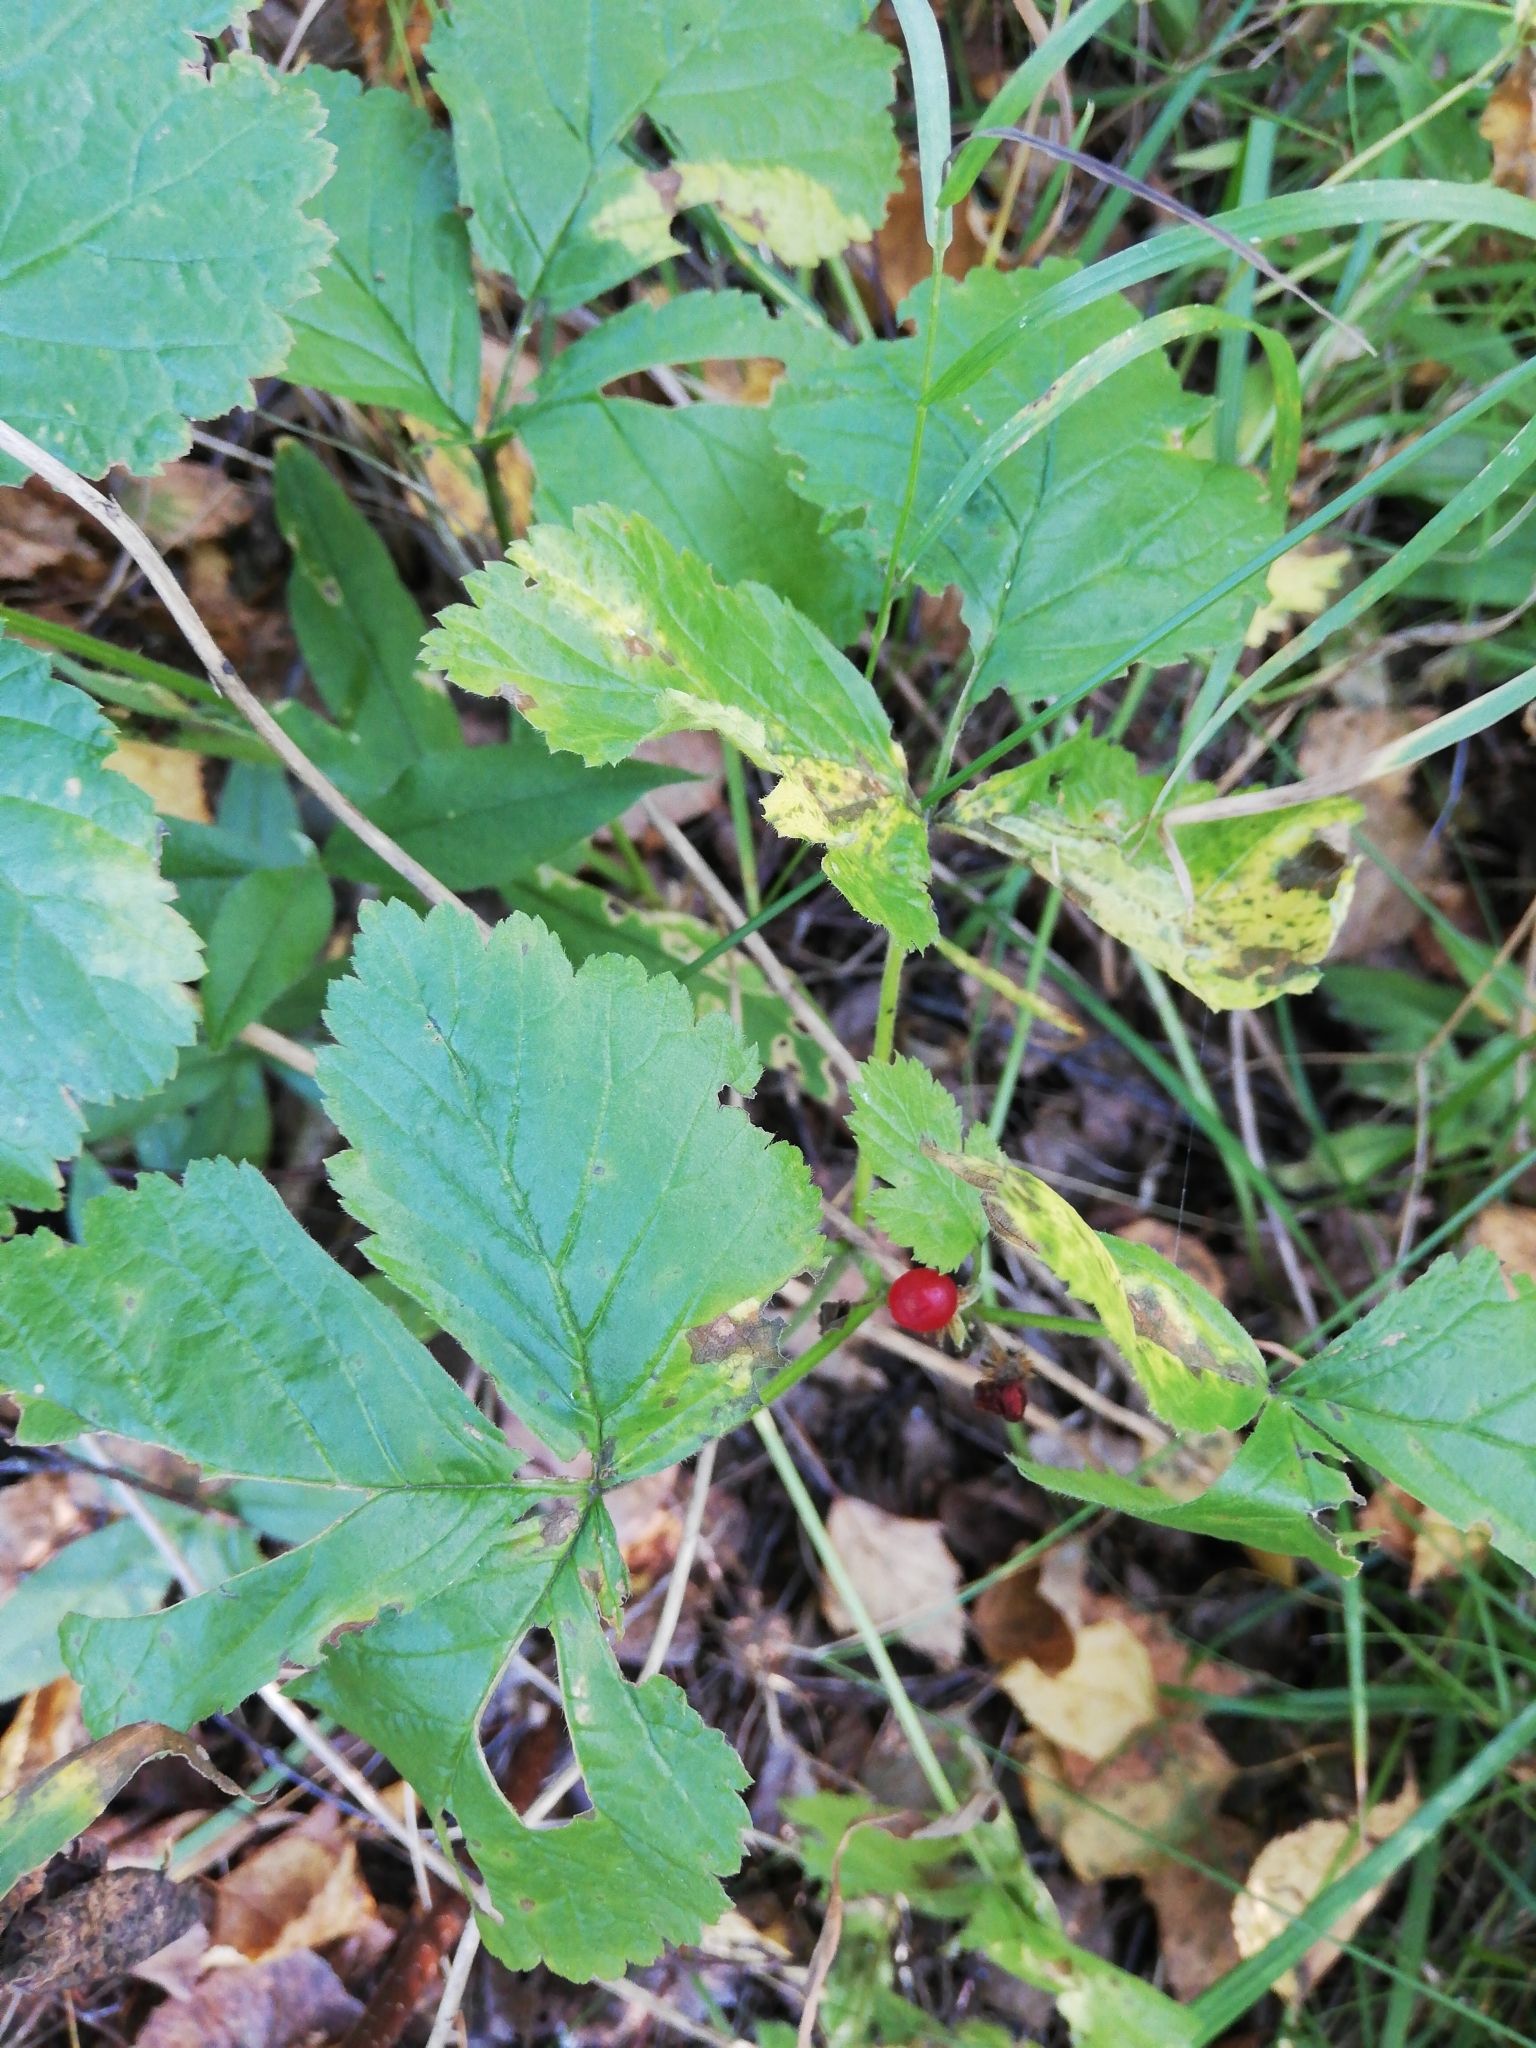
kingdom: Plantae
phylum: Tracheophyta
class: Magnoliopsida
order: Rosales
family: Rosaceae
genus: Rubus
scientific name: Rubus saxatilis
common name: Stone bramble
